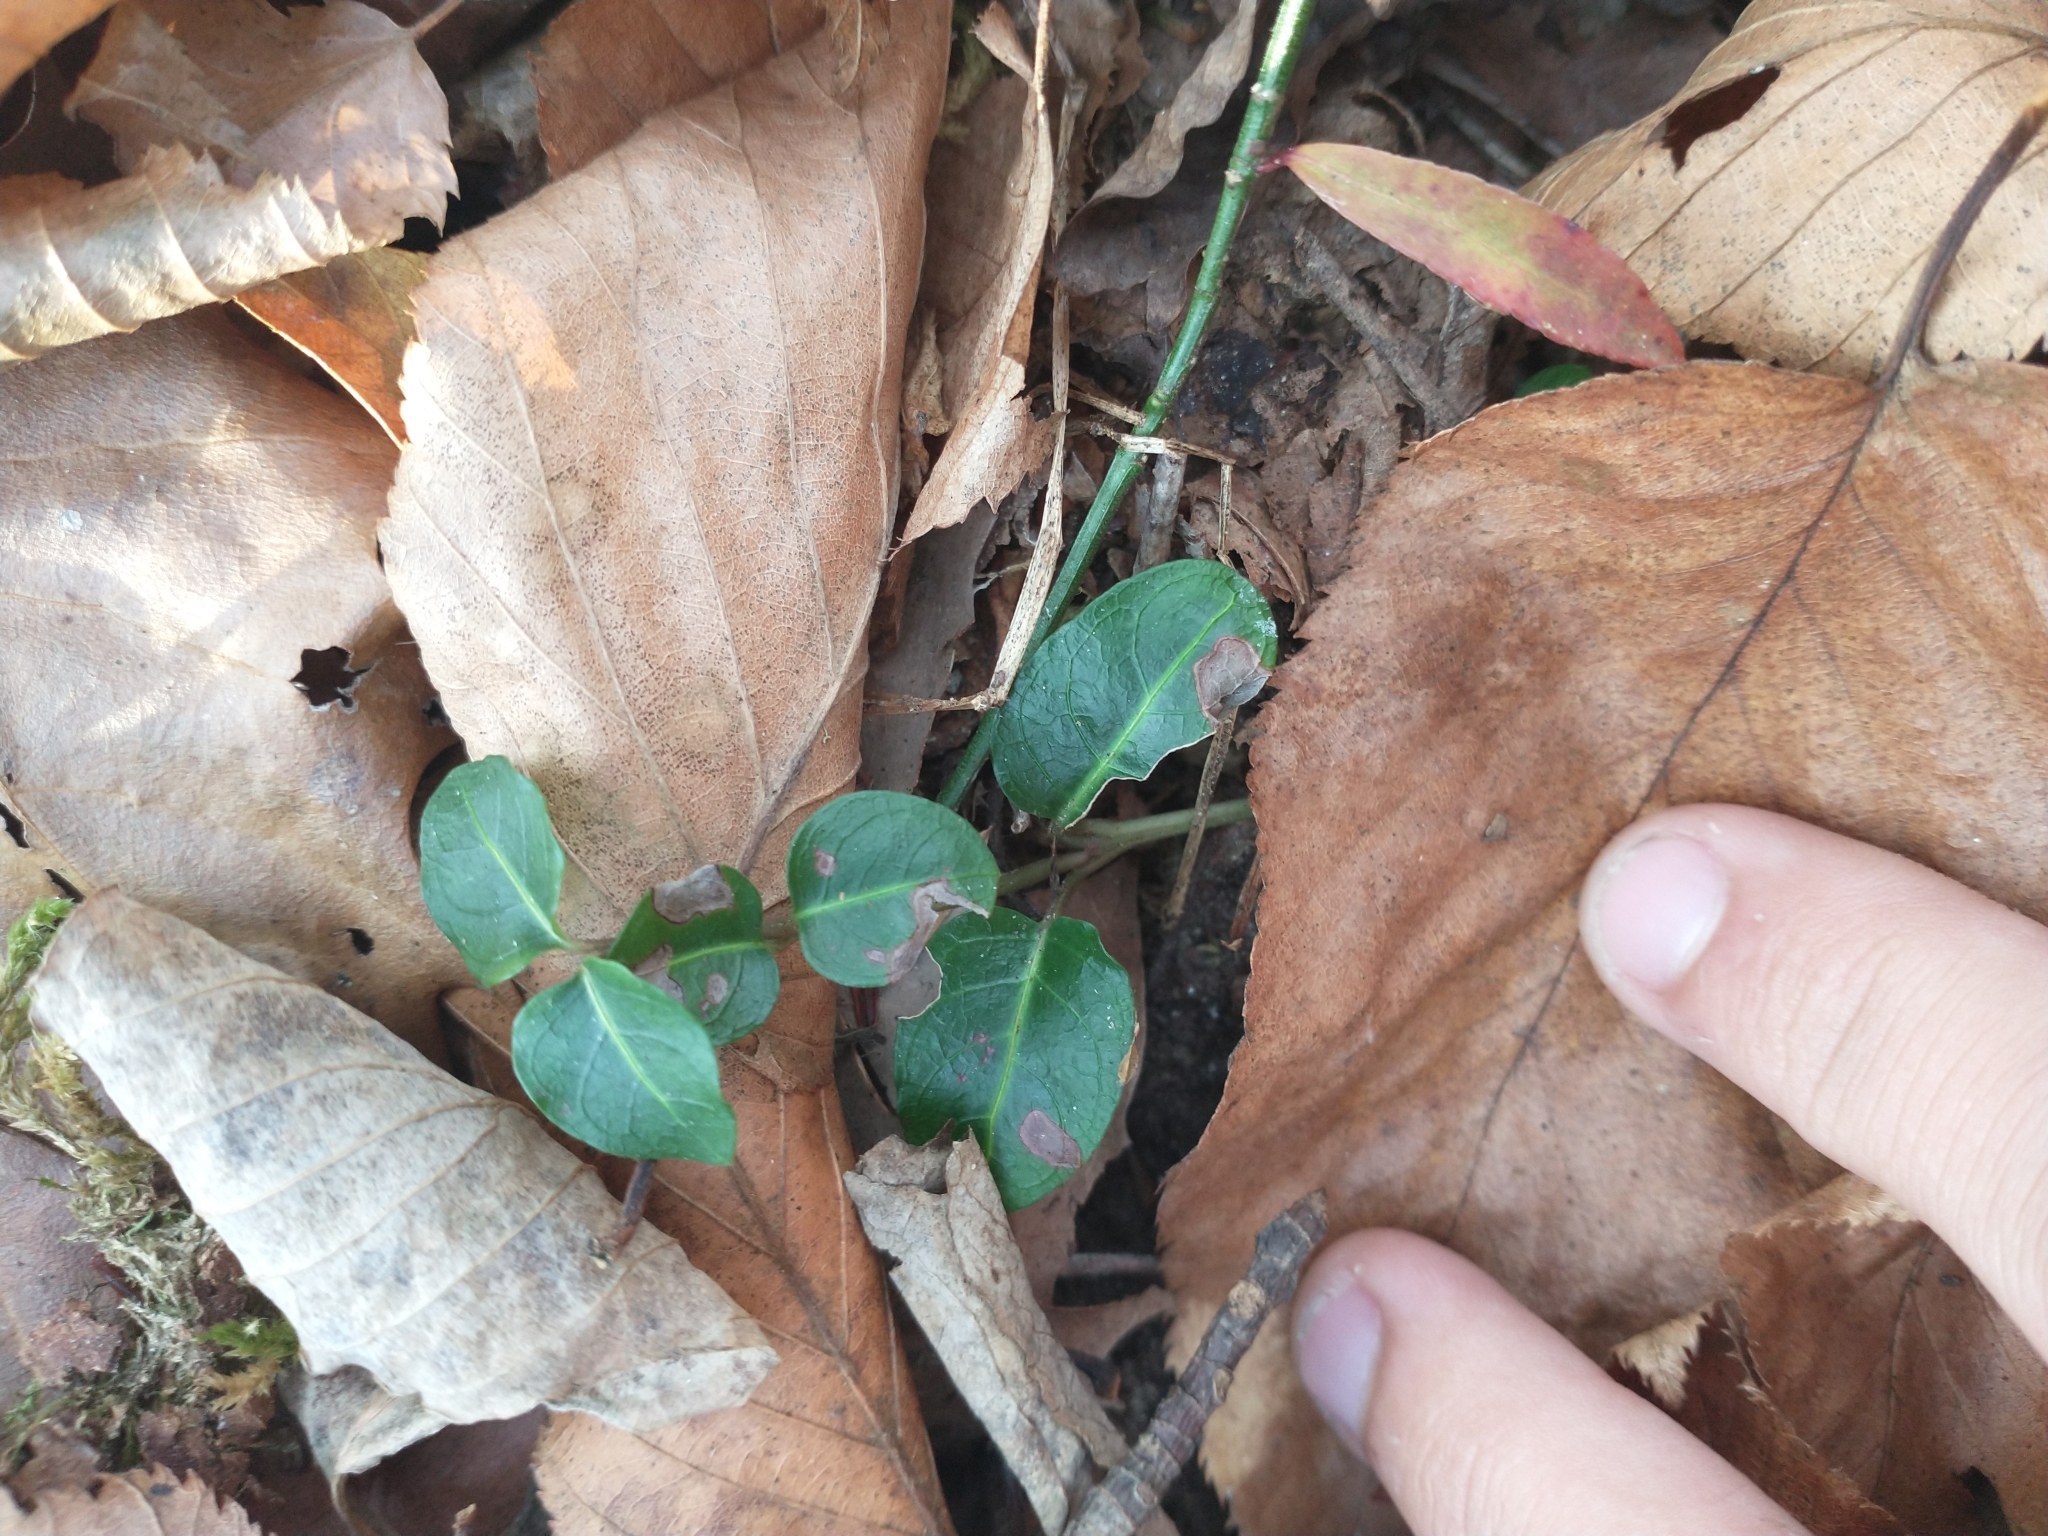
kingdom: Plantae
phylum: Tracheophyta
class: Magnoliopsida
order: Gentianales
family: Rubiaceae
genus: Mitchella
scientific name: Mitchella repens
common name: Partridge-berry
